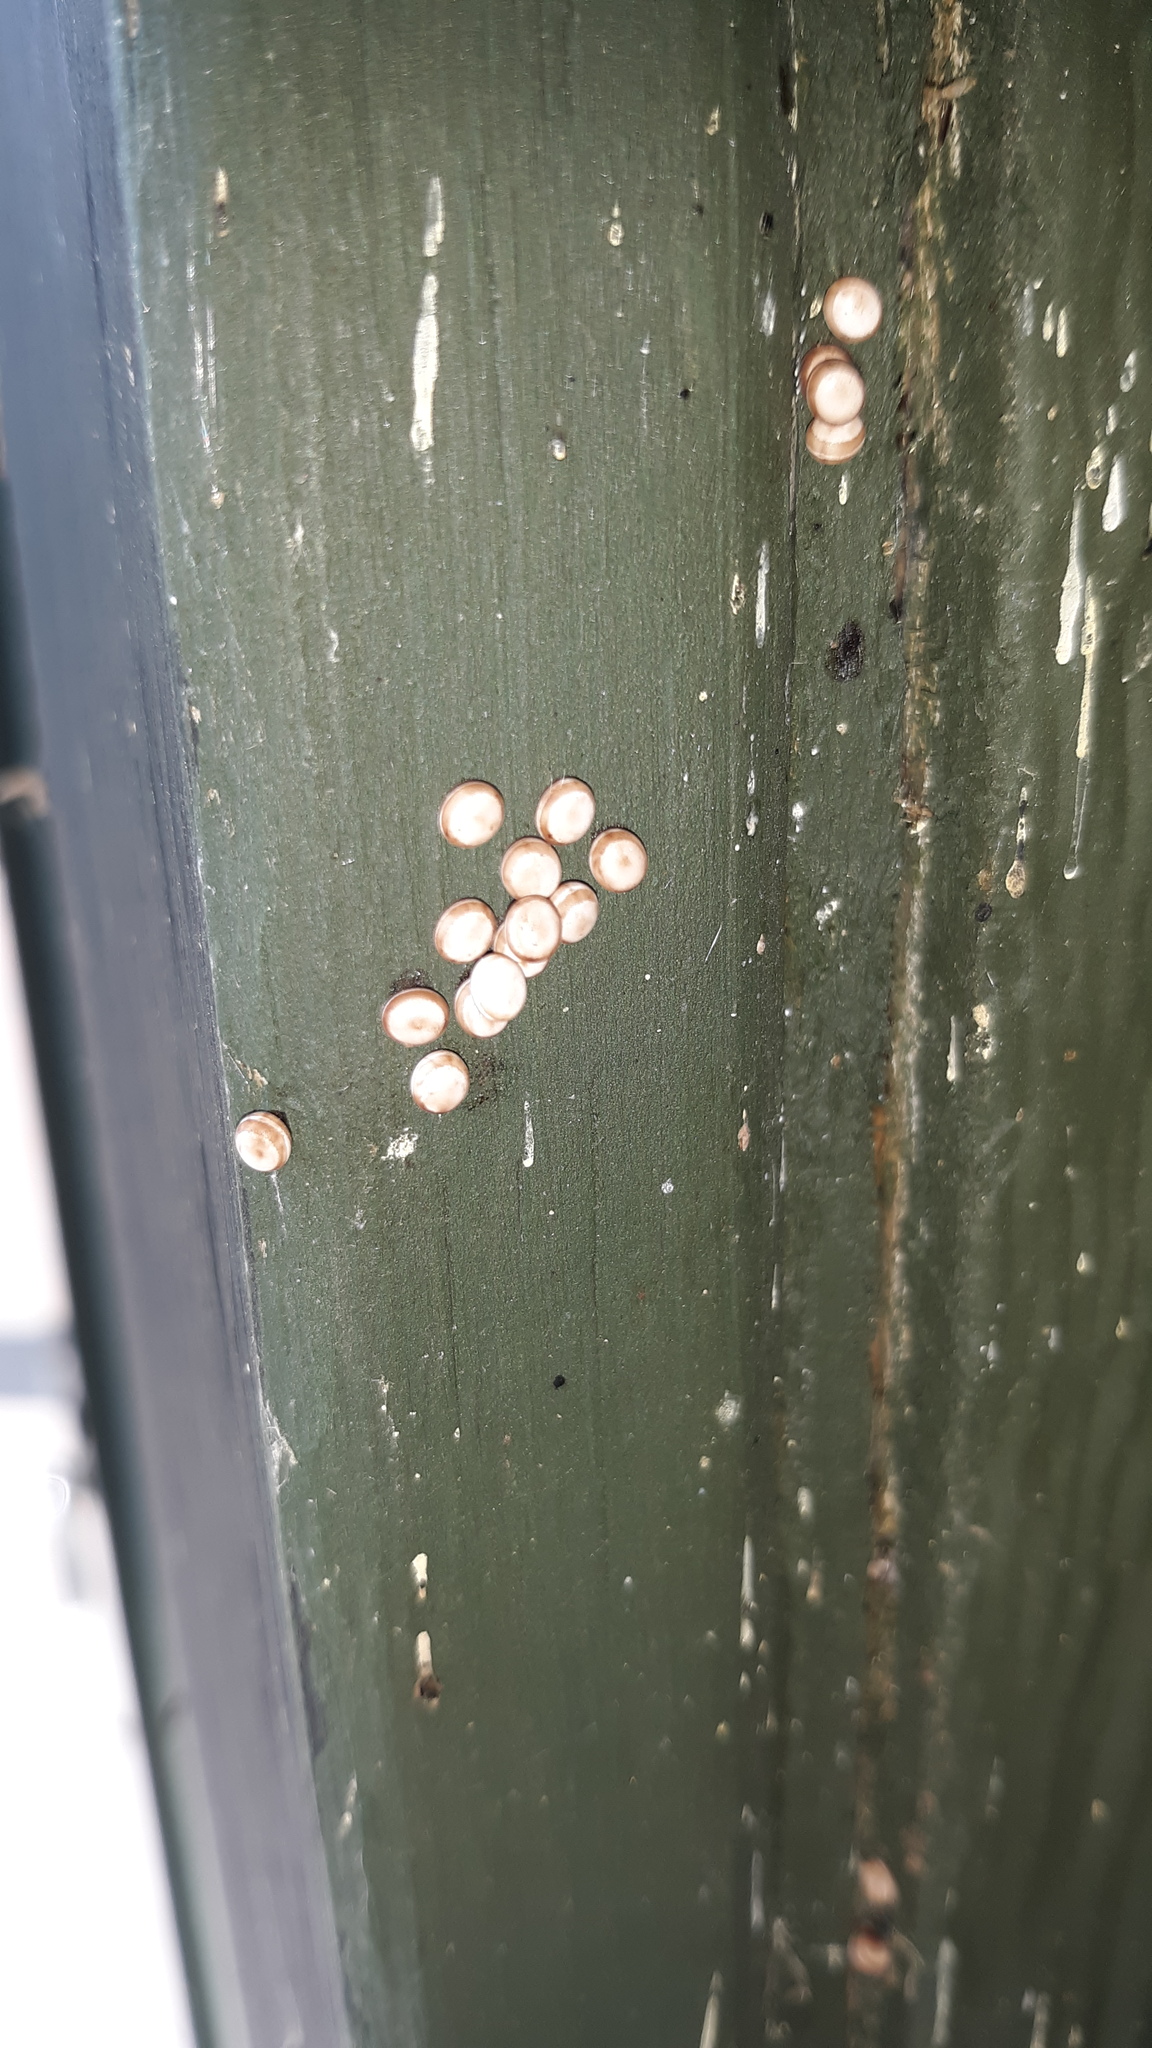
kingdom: Animalia
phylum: Arthropoda
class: Insecta
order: Lepidoptera
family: Saturniidae
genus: Antheraea
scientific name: Antheraea polyphemus
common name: Polyphemus moth
